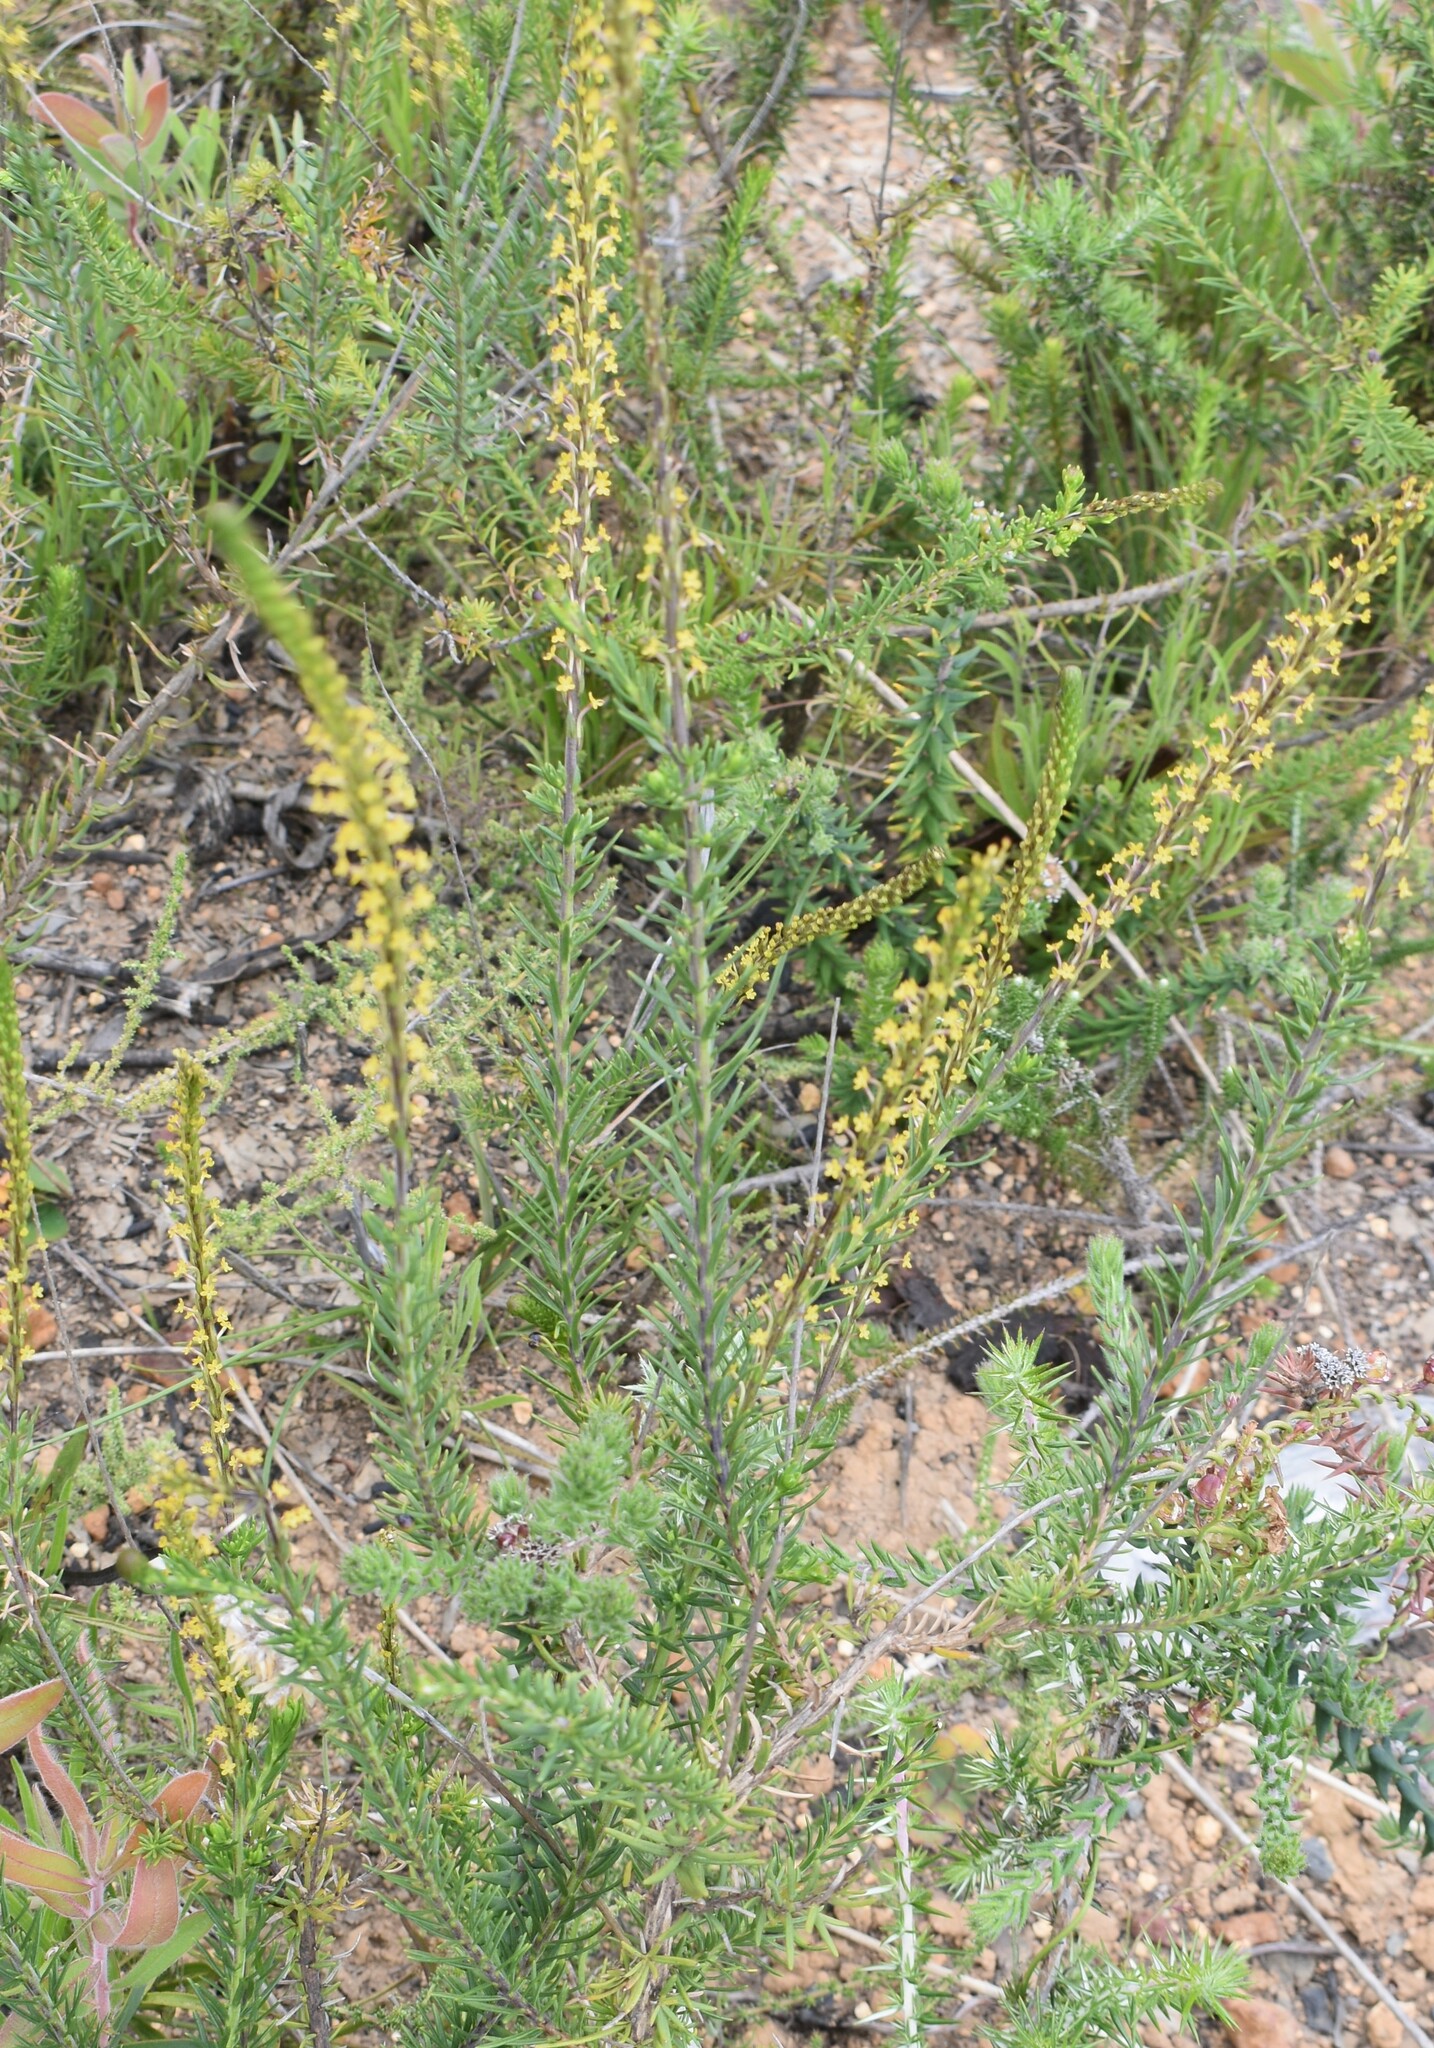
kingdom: Plantae
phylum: Tracheophyta
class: Magnoliopsida
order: Lamiales
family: Scrophulariaceae
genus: Microdon
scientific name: Microdon dubius
